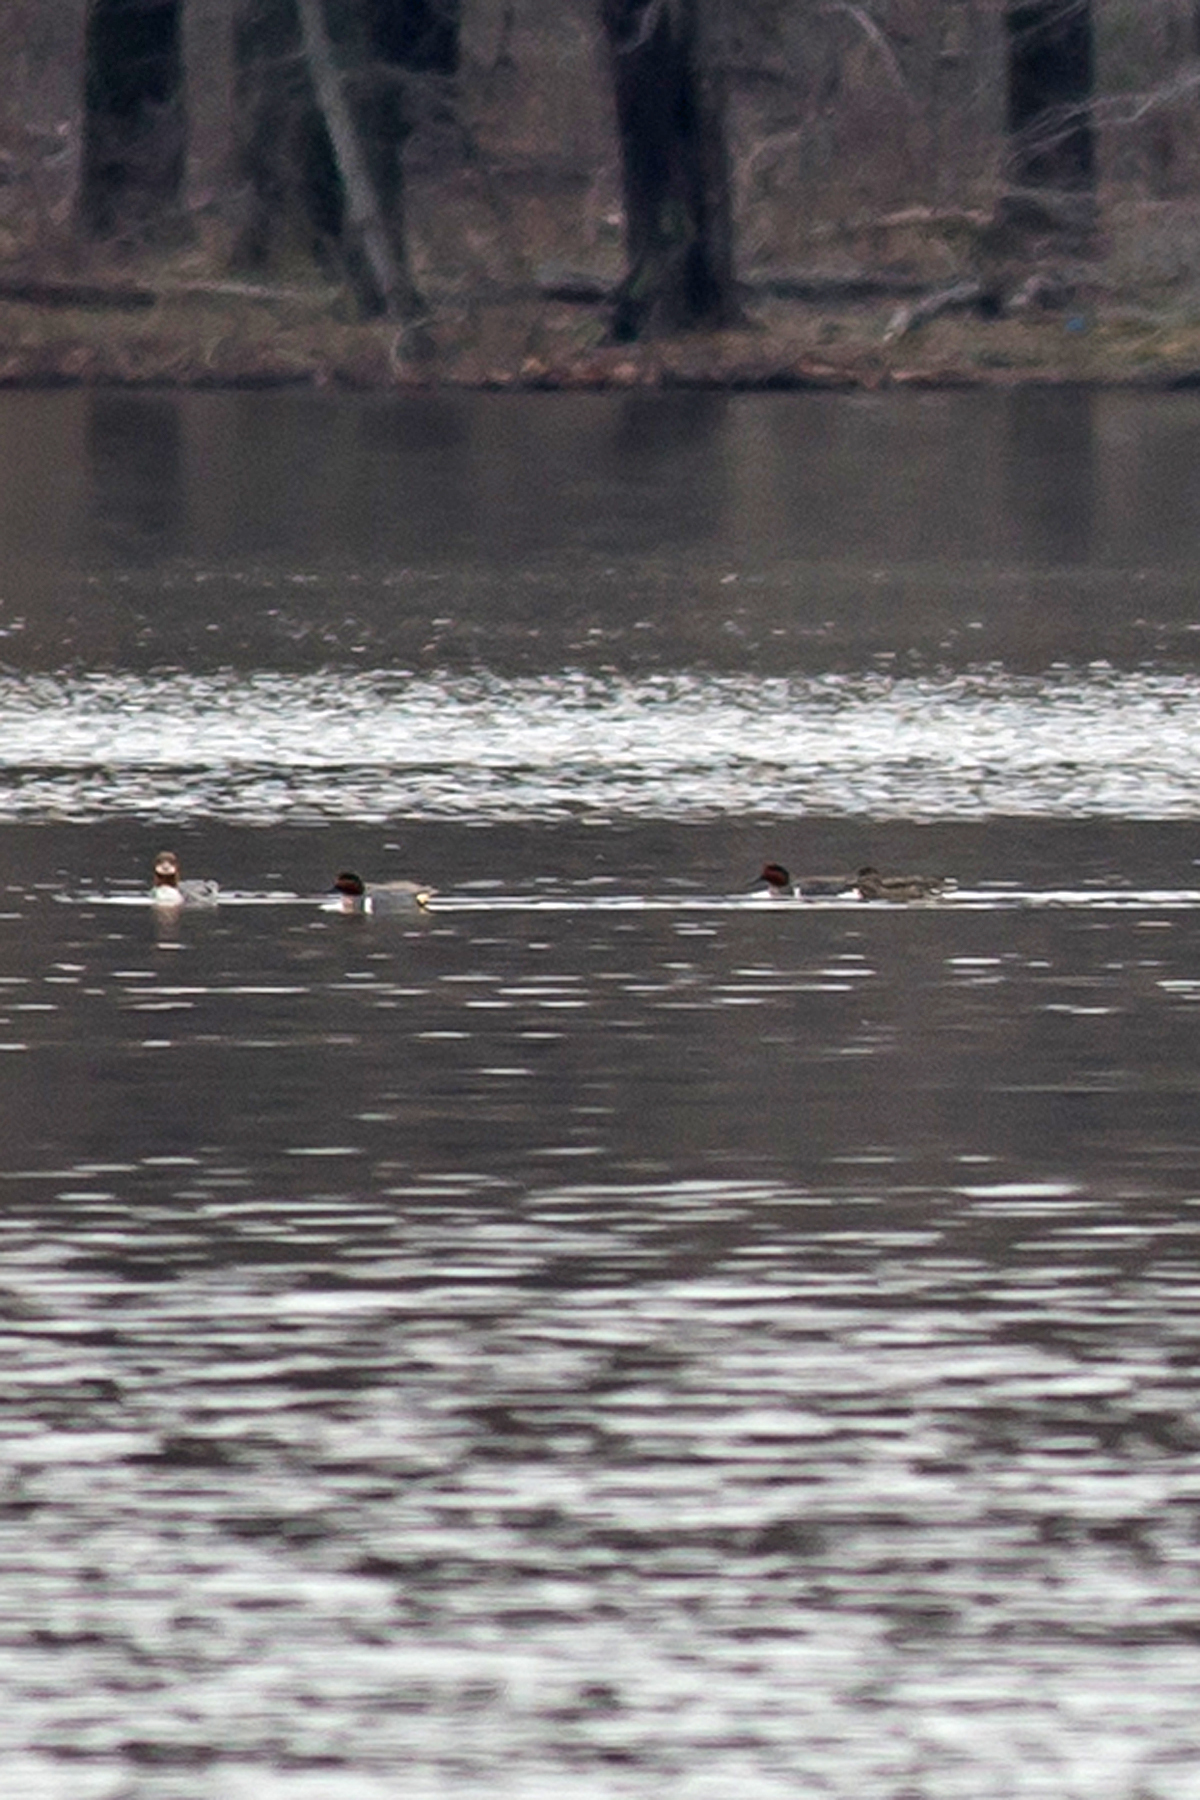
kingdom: Animalia
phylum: Chordata
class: Aves
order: Anseriformes
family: Anatidae
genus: Anas
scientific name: Anas crecca
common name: Eurasian teal
